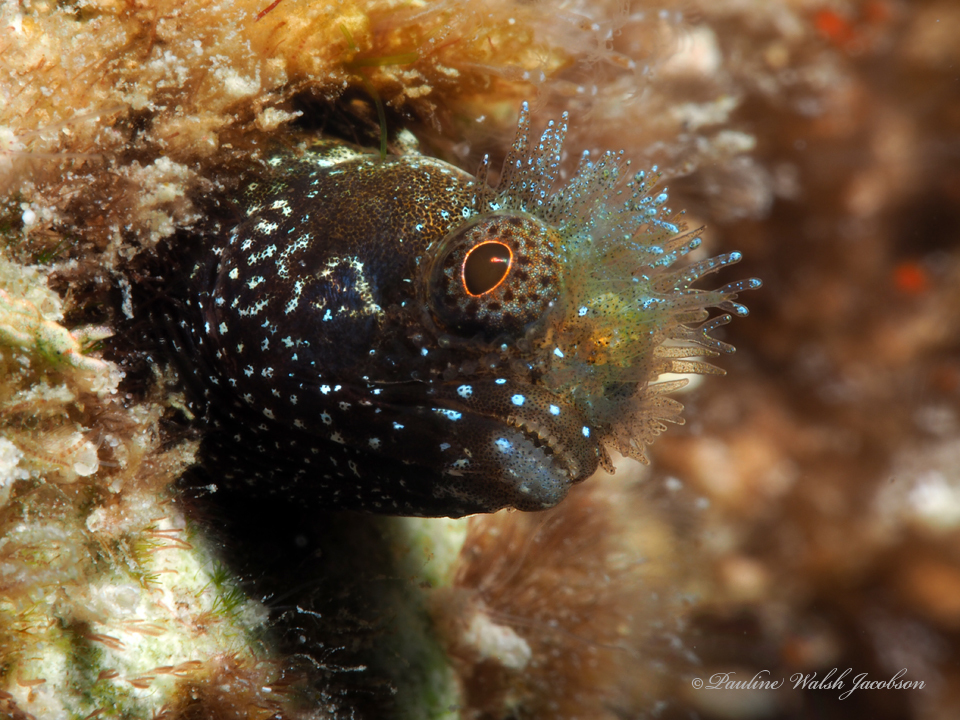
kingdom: Animalia
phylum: Chordata
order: Perciformes
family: Chaenopsidae
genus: Acanthemblemaria
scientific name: Acanthemblemaria medusa
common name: Medusa blenny
